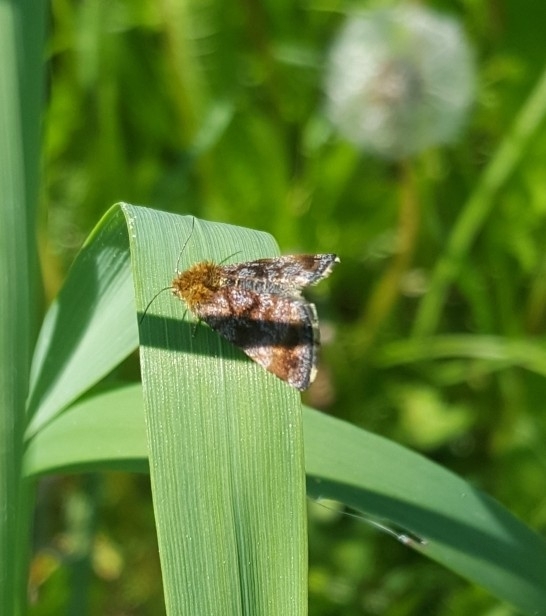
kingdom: Animalia
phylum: Arthropoda
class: Insecta
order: Lepidoptera
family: Noctuidae
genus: Panemeria
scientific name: Panemeria tenebrata
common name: Small yellow underwing
